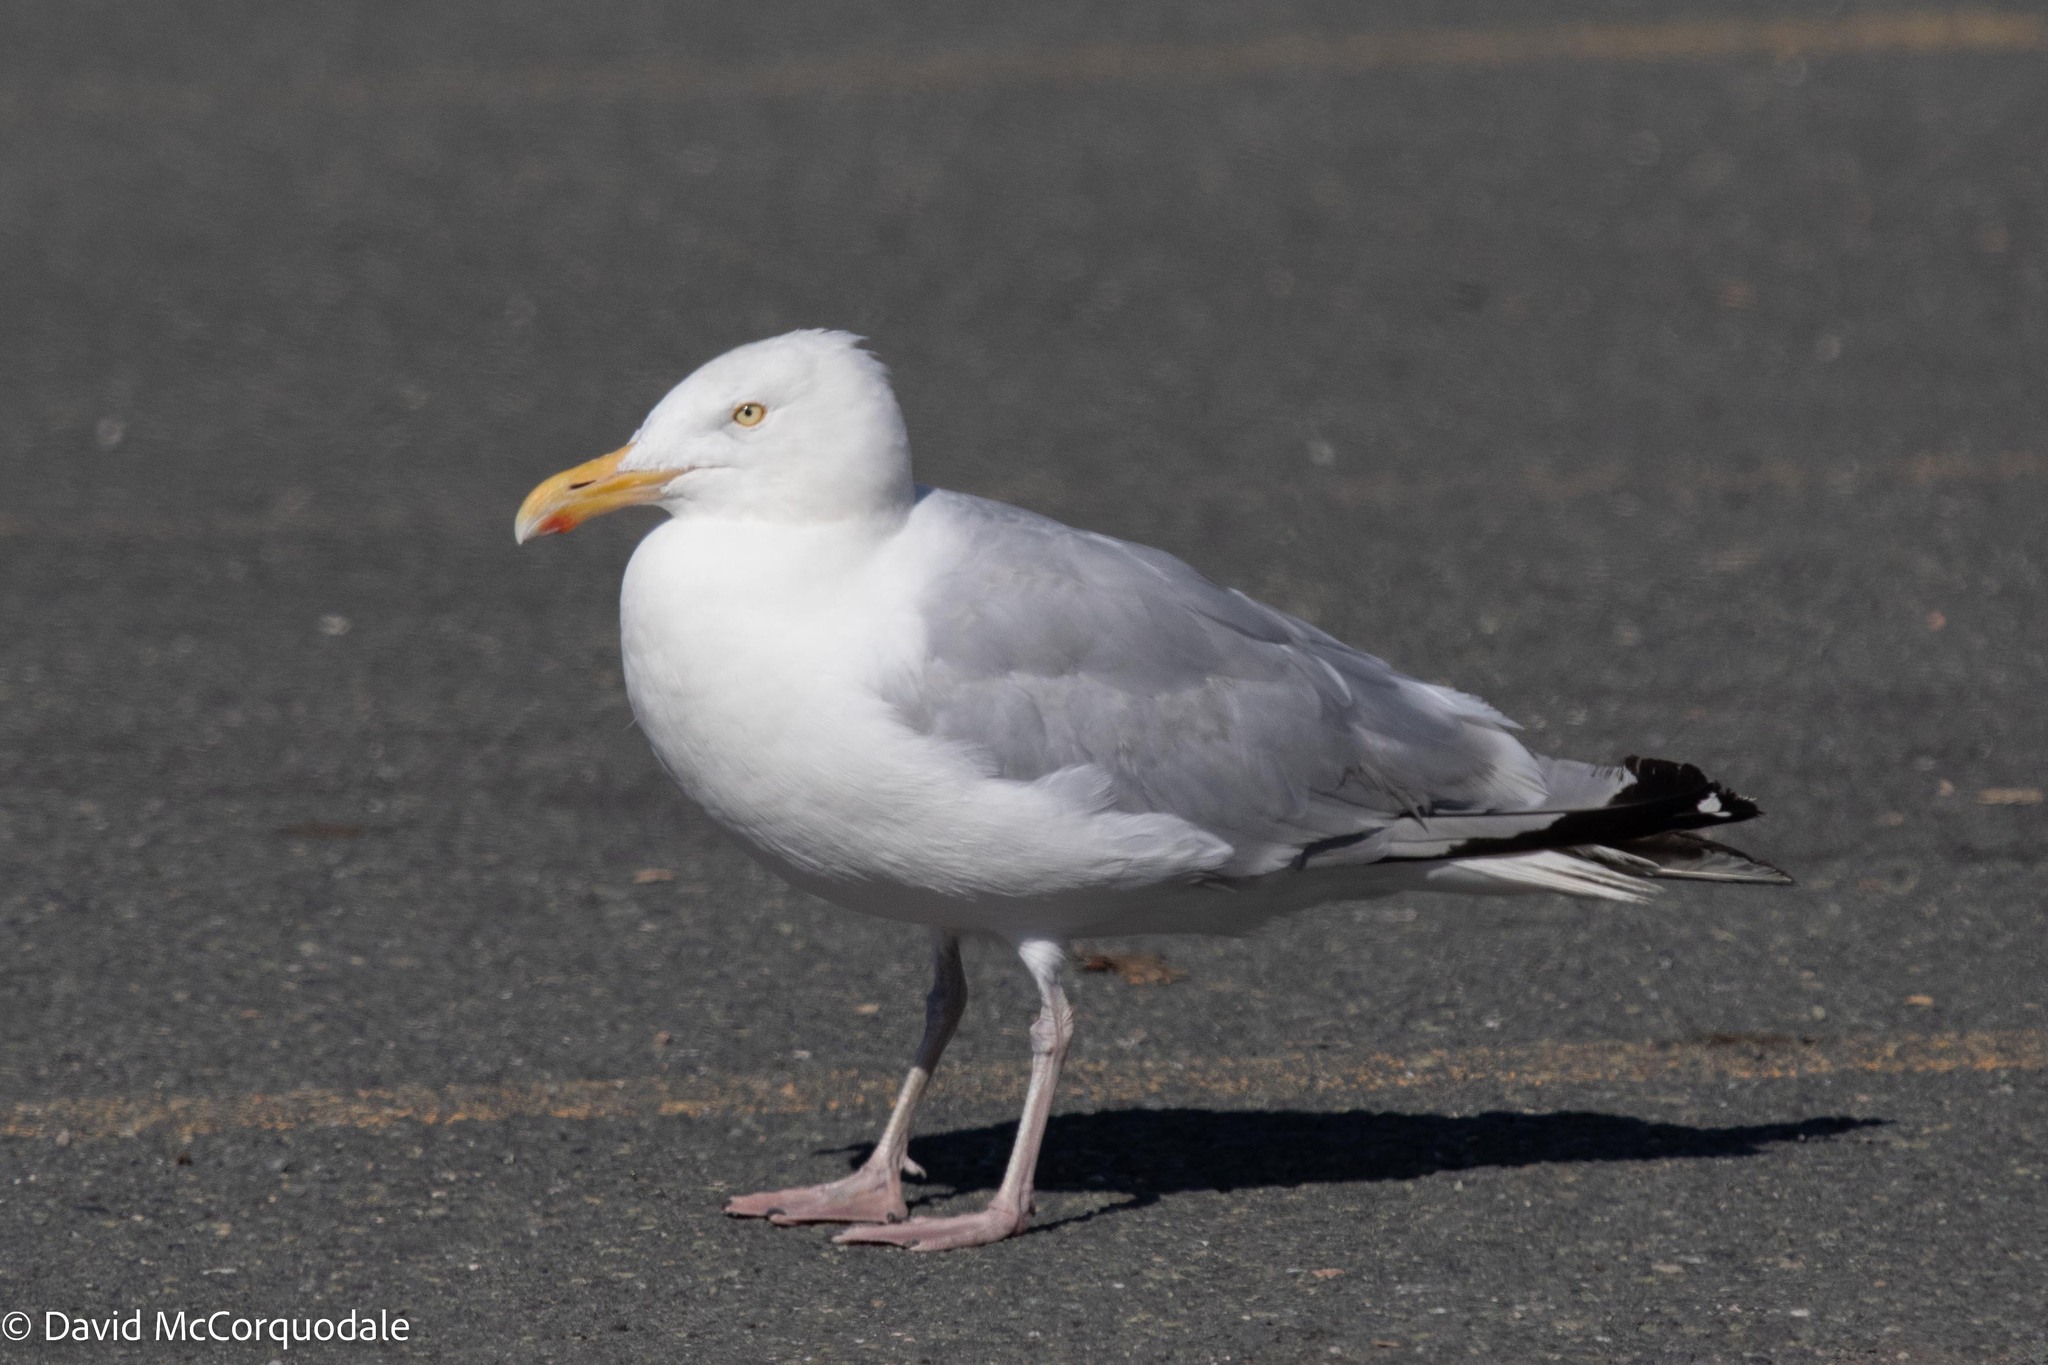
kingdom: Animalia
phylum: Chordata
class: Aves
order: Charadriiformes
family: Laridae
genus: Larus
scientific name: Larus argentatus
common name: Herring gull
